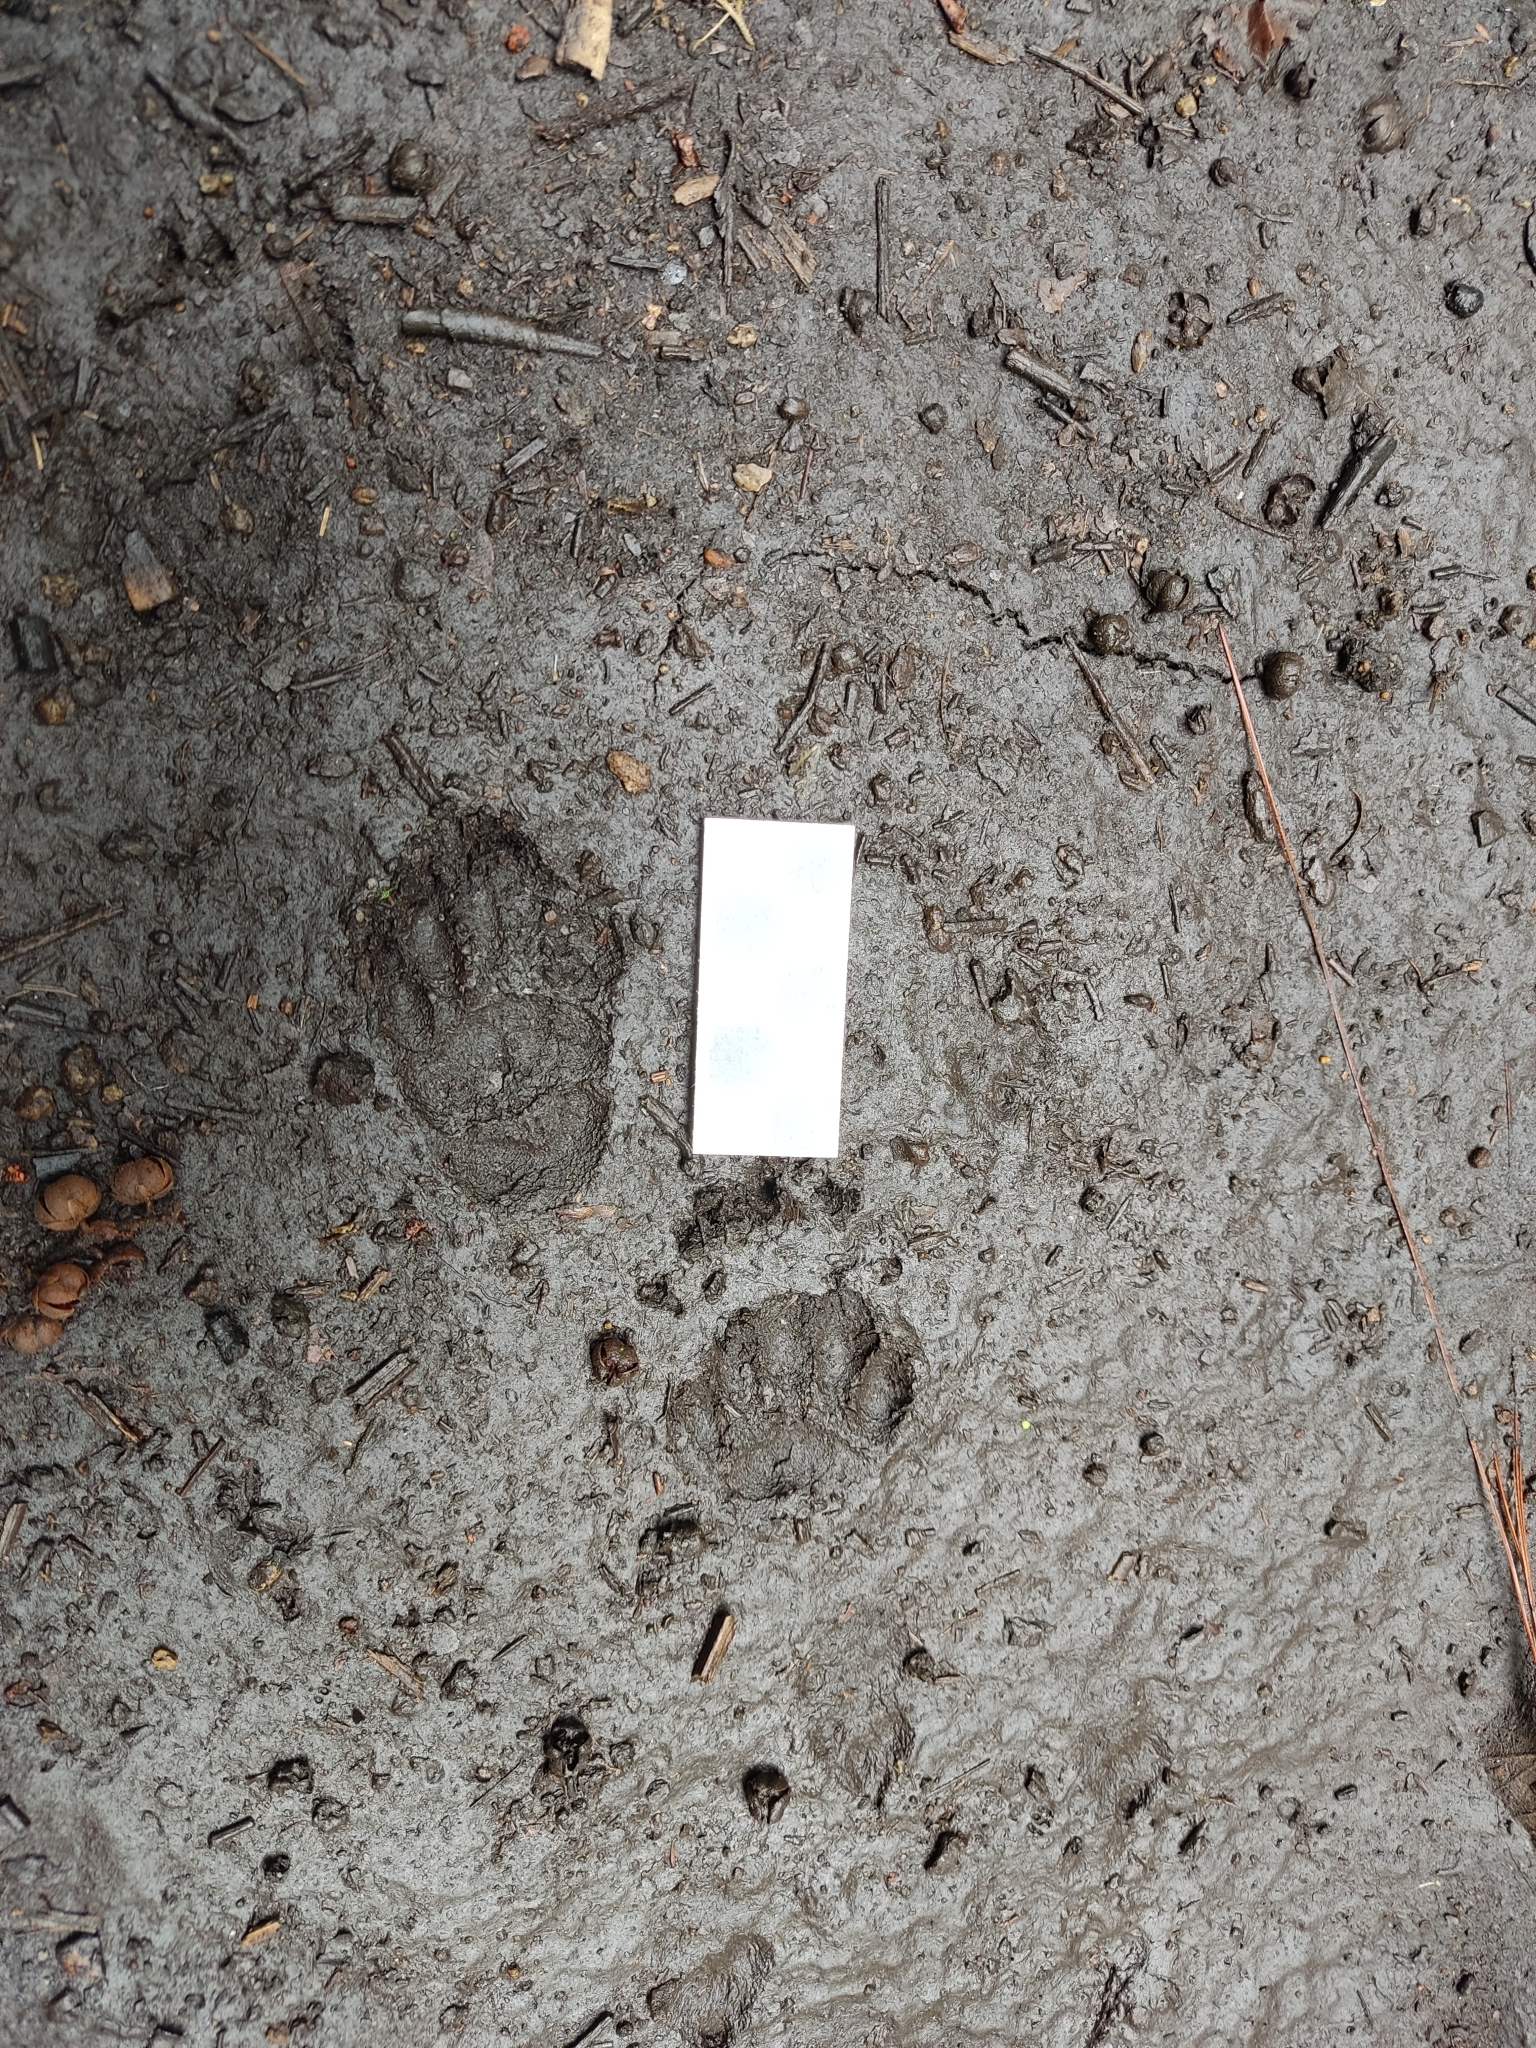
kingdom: Animalia
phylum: Chordata
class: Mammalia
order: Carnivora
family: Mephitidae
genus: Conepatus
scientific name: Conepatus leuconotus
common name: Eastern hog-nosed skunk
